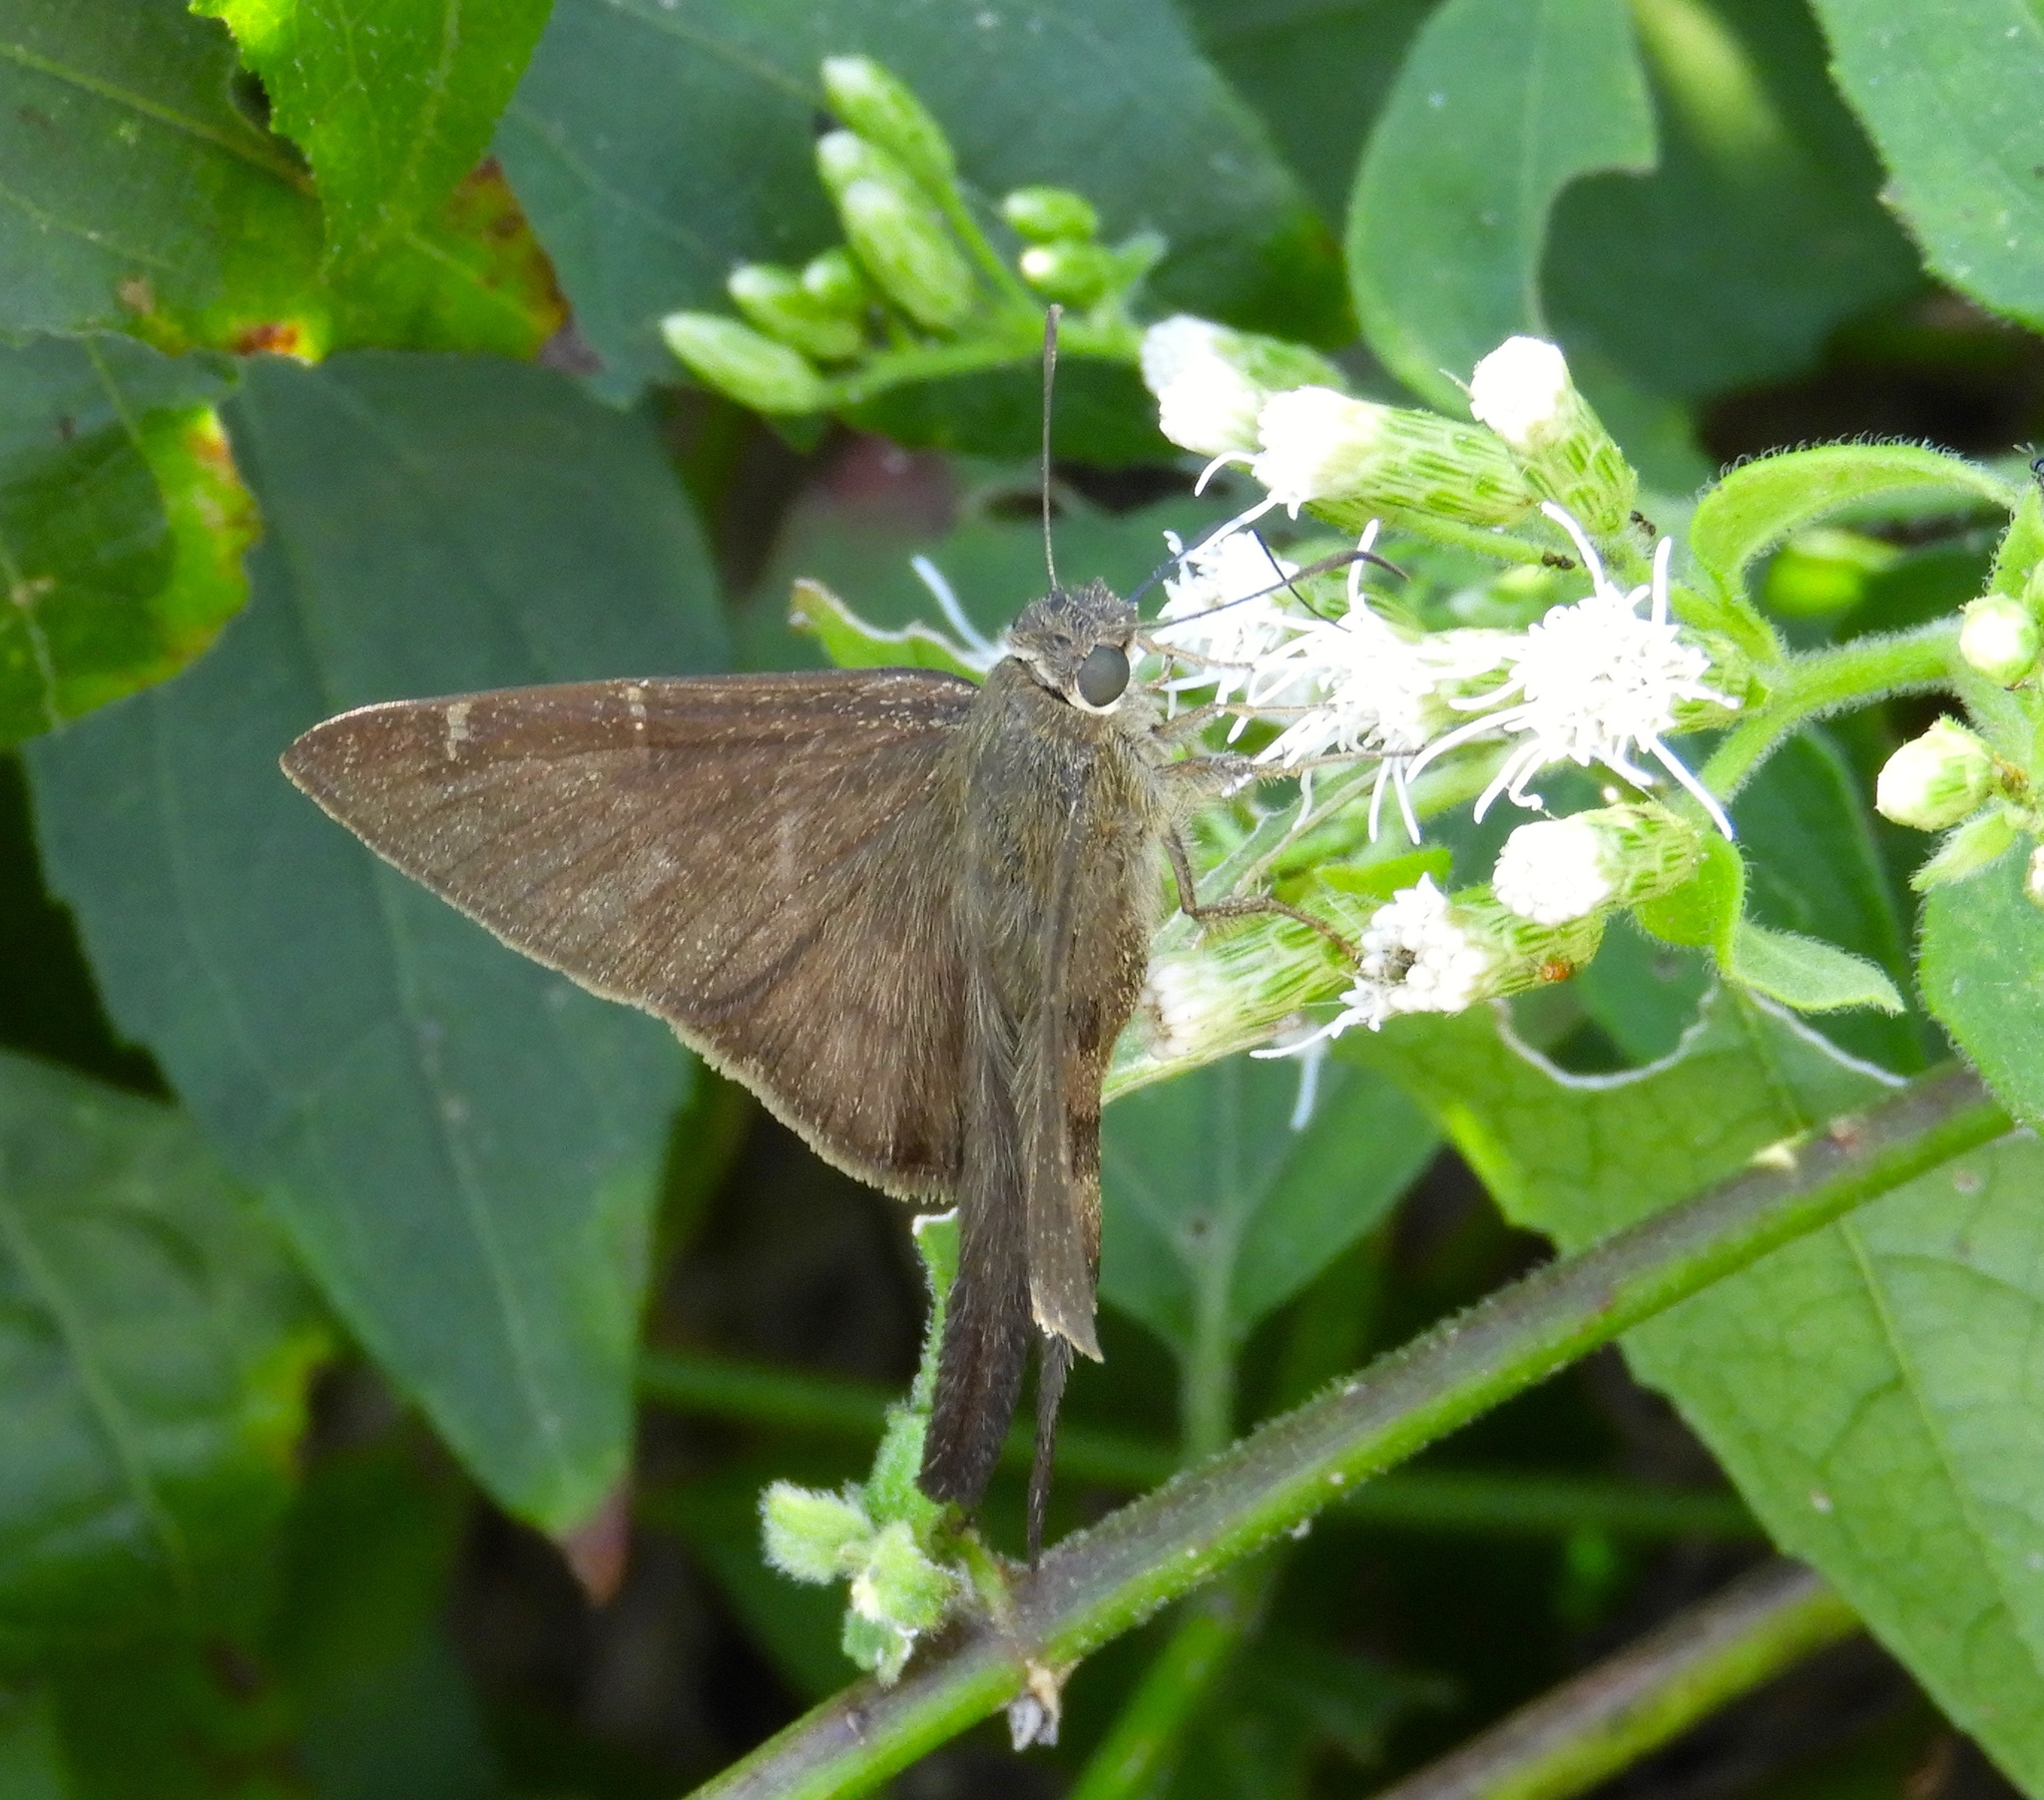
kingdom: Animalia
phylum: Arthropoda
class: Insecta
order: Lepidoptera
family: Hesperiidae
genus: Urbanus
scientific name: Urbanus procne
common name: Brown longtail
